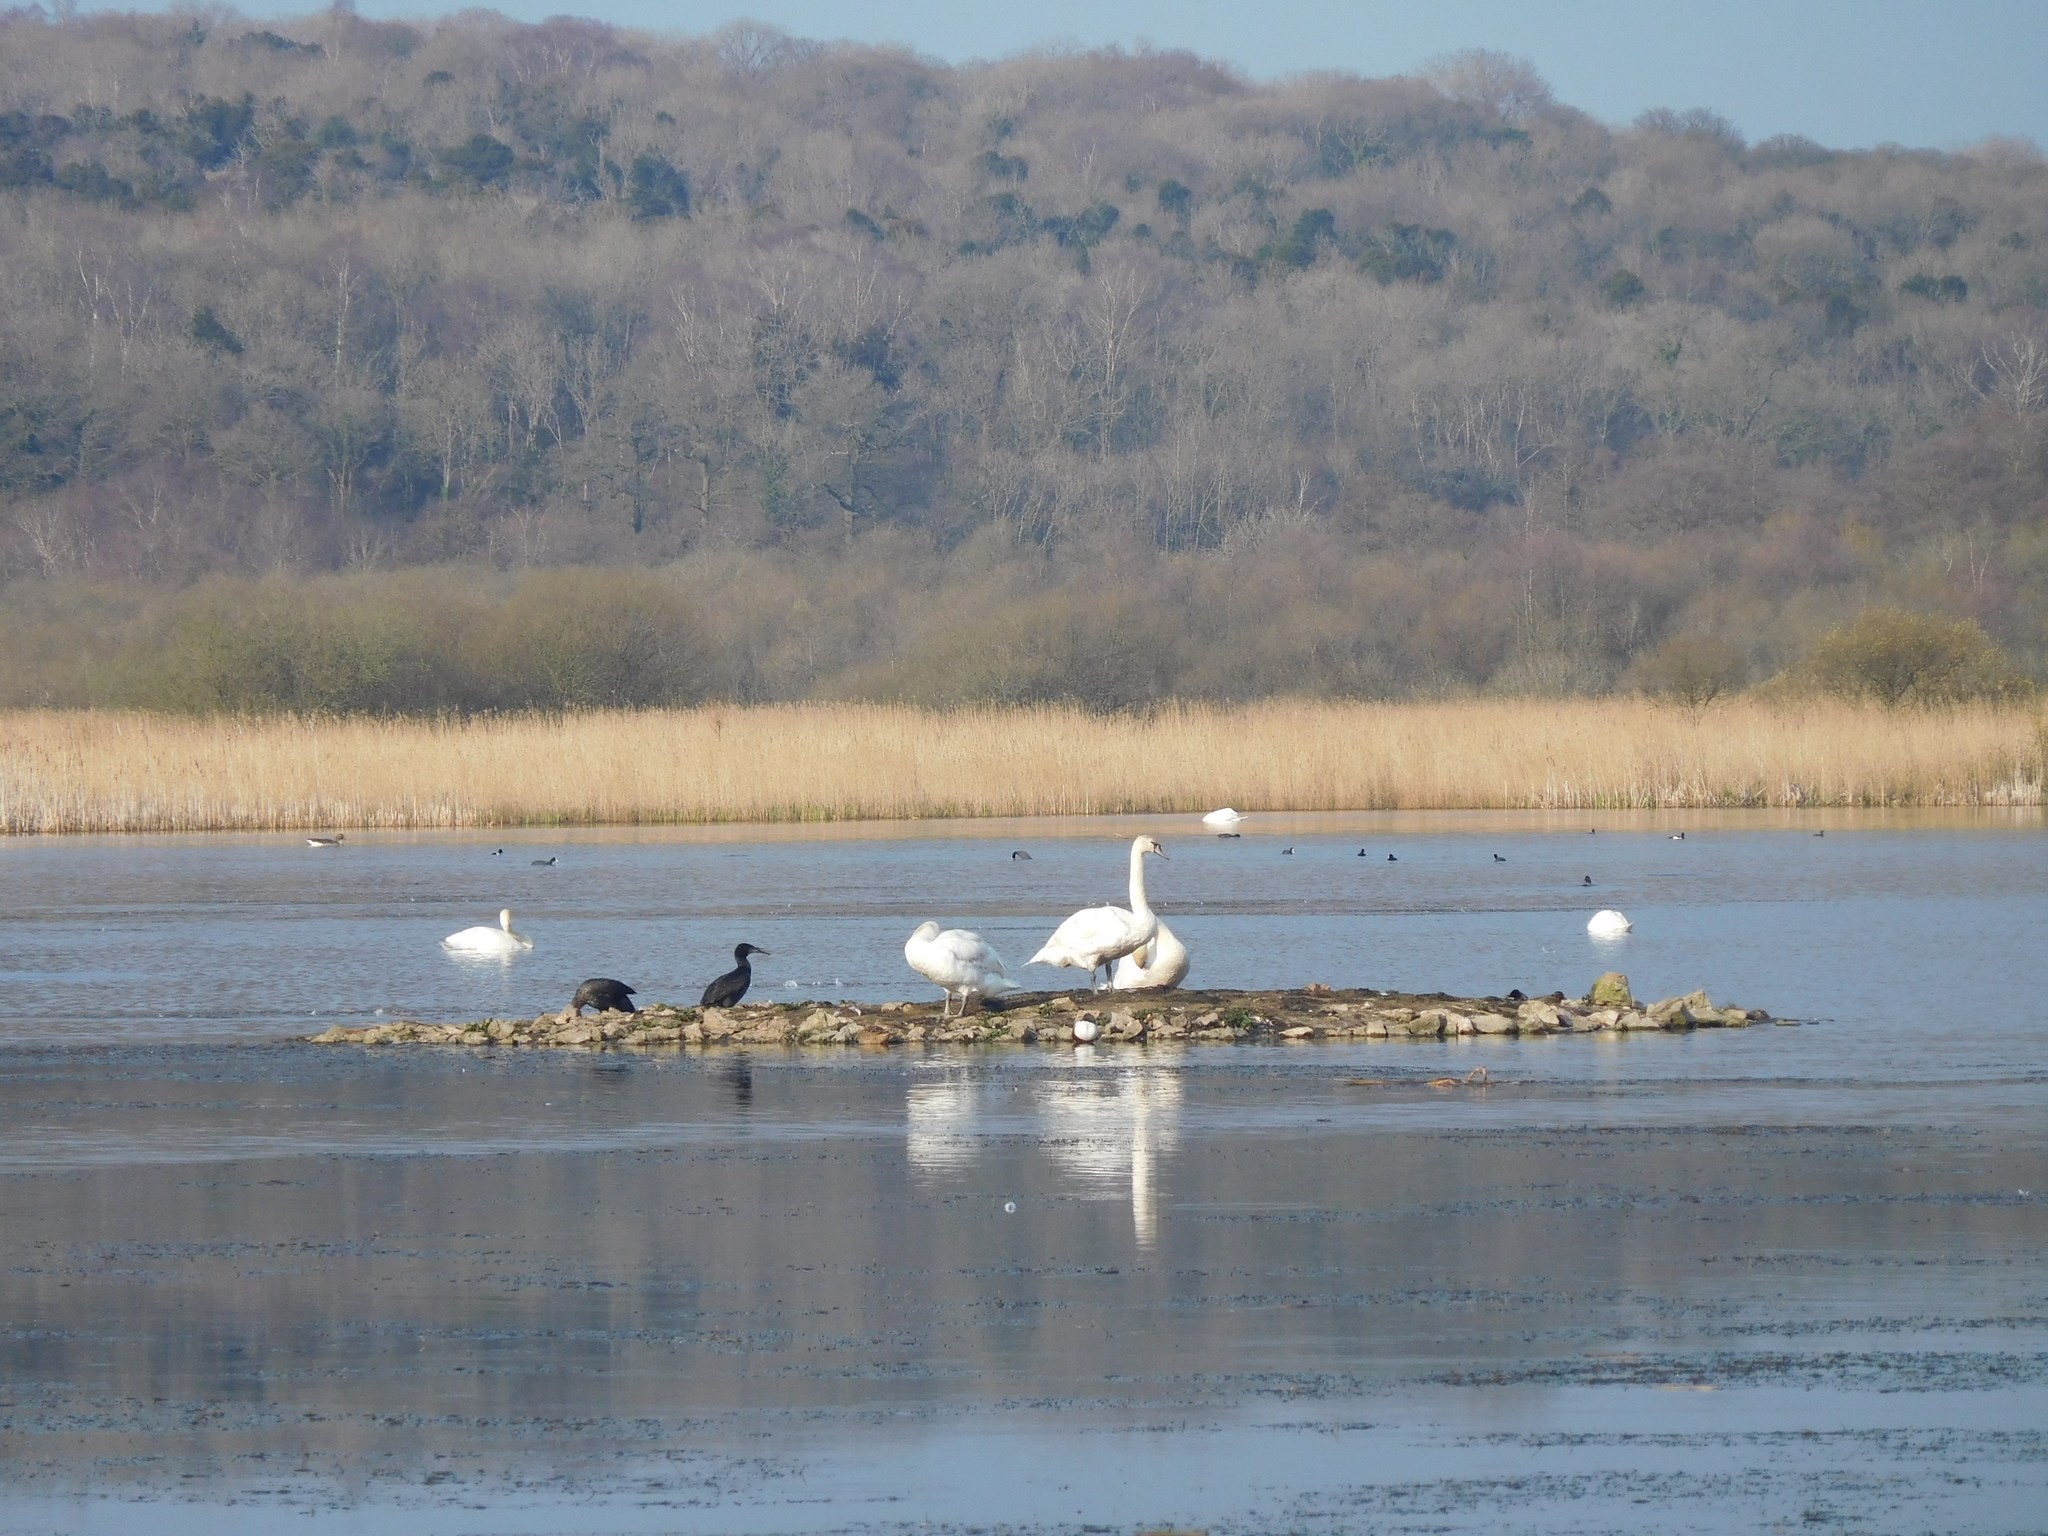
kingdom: Animalia
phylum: Chordata
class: Aves
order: Anseriformes
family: Anatidae
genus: Cygnus
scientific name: Cygnus olor
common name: Mute swan
